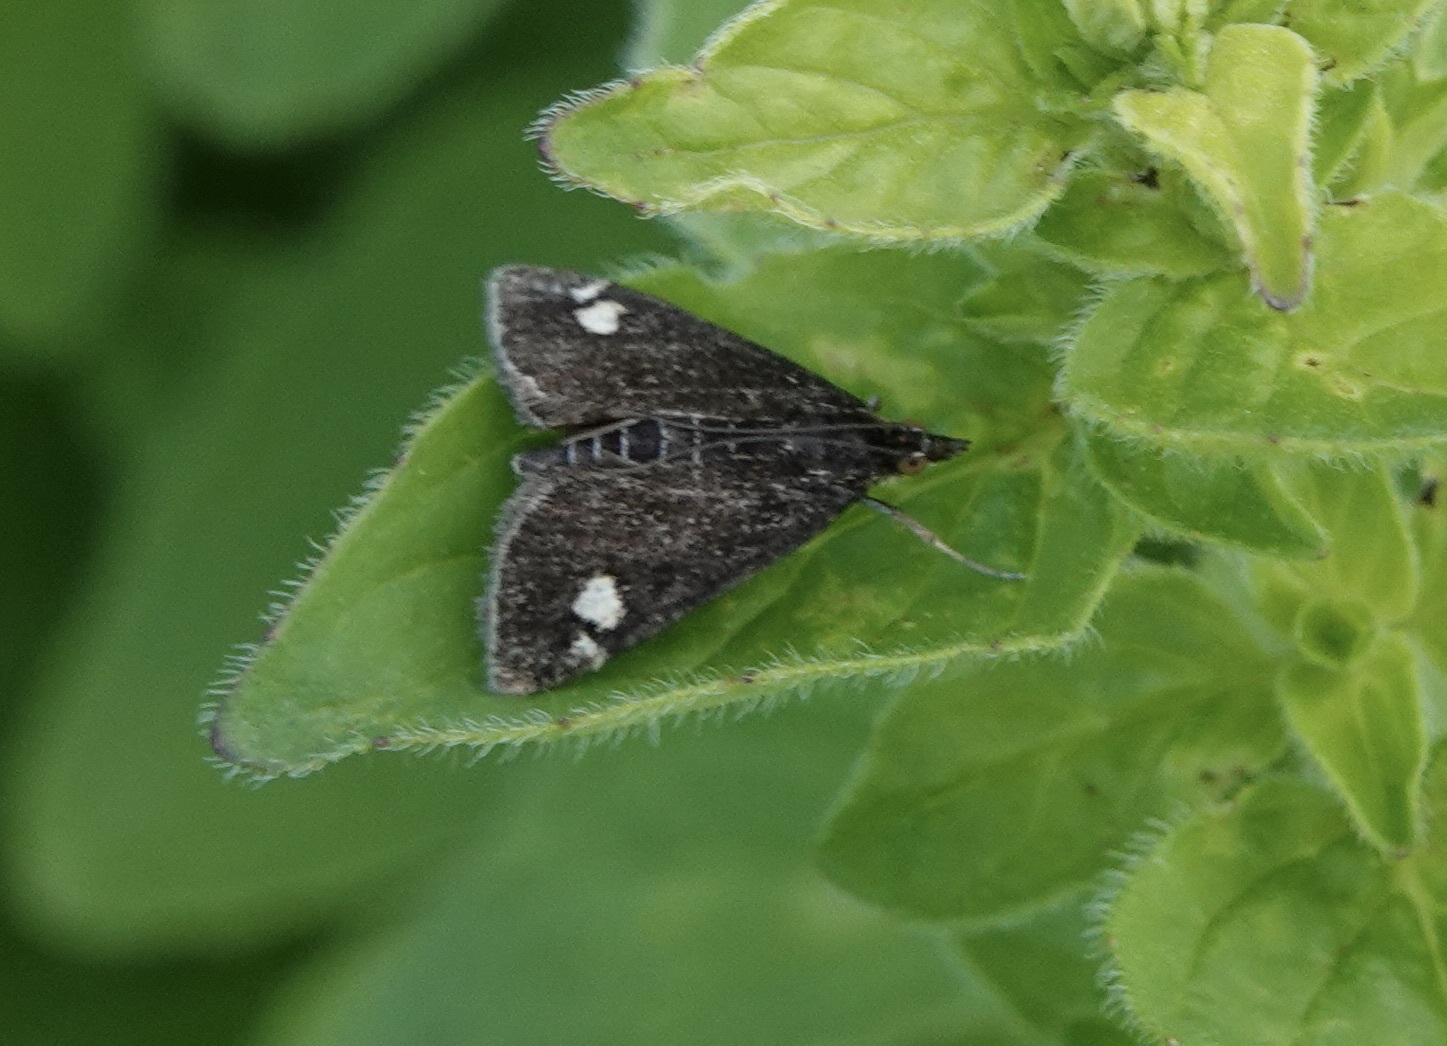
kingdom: Animalia
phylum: Arthropoda
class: Insecta
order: Lepidoptera
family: Crambidae
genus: Pyrausta
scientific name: Pyrausta aurata
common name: Small purple & gold
